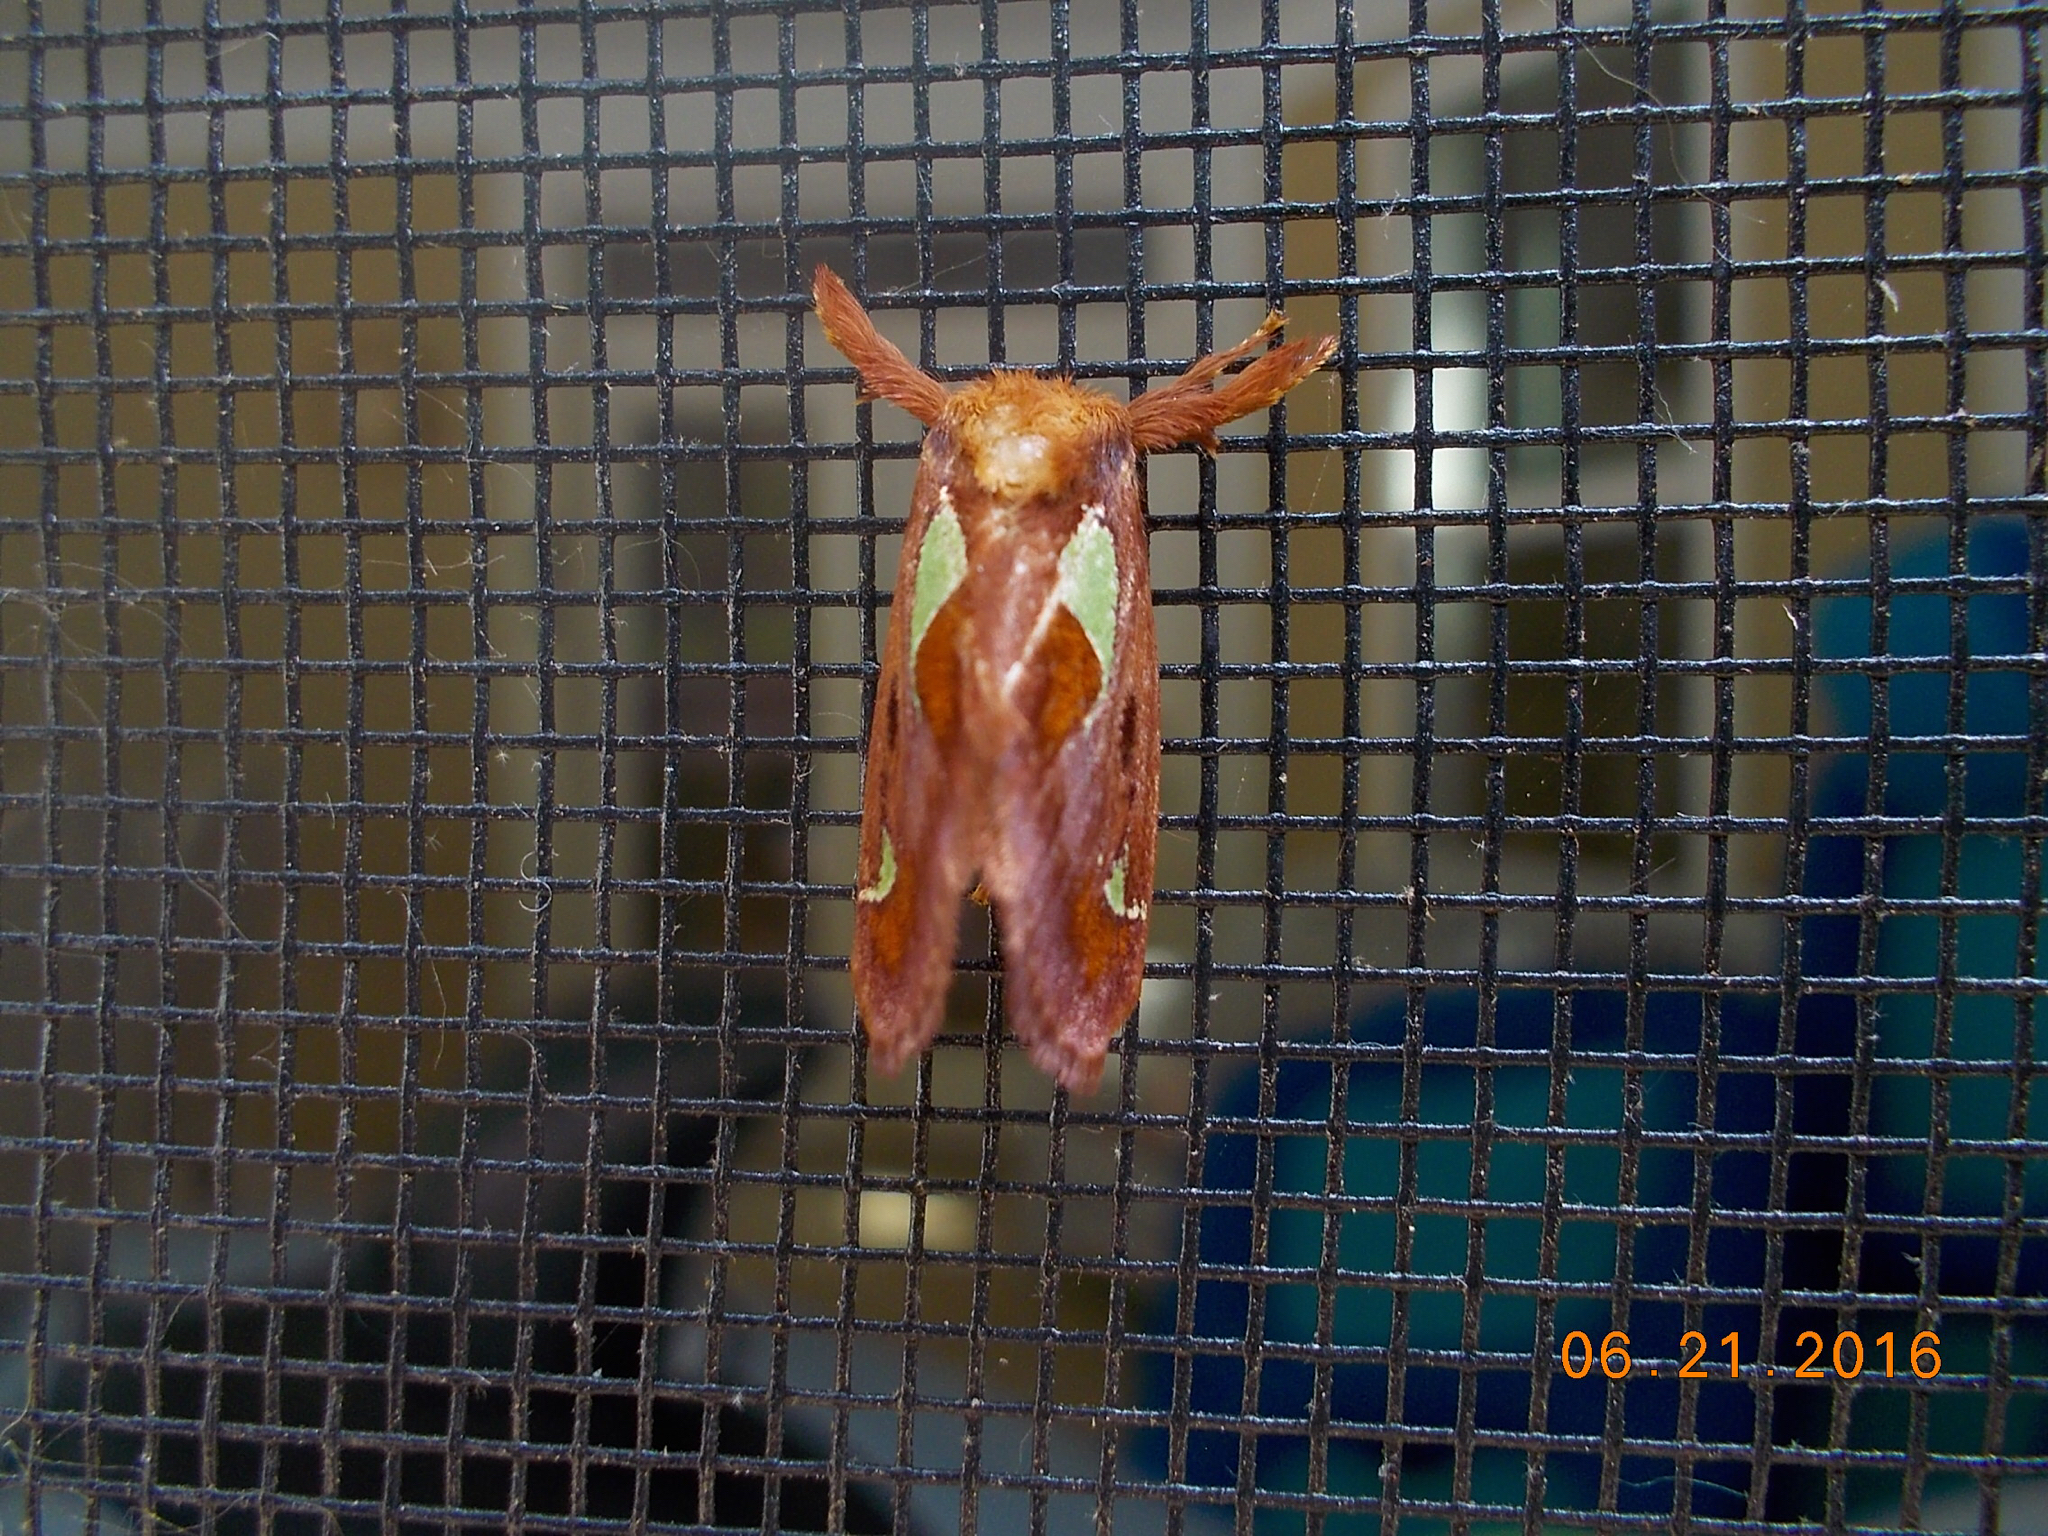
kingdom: Animalia
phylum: Arthropoda
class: Insecta
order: Lepidoptera
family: Limacodidae
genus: Euclea
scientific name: Euclea delphinii
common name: Spiny oak-slug moth
